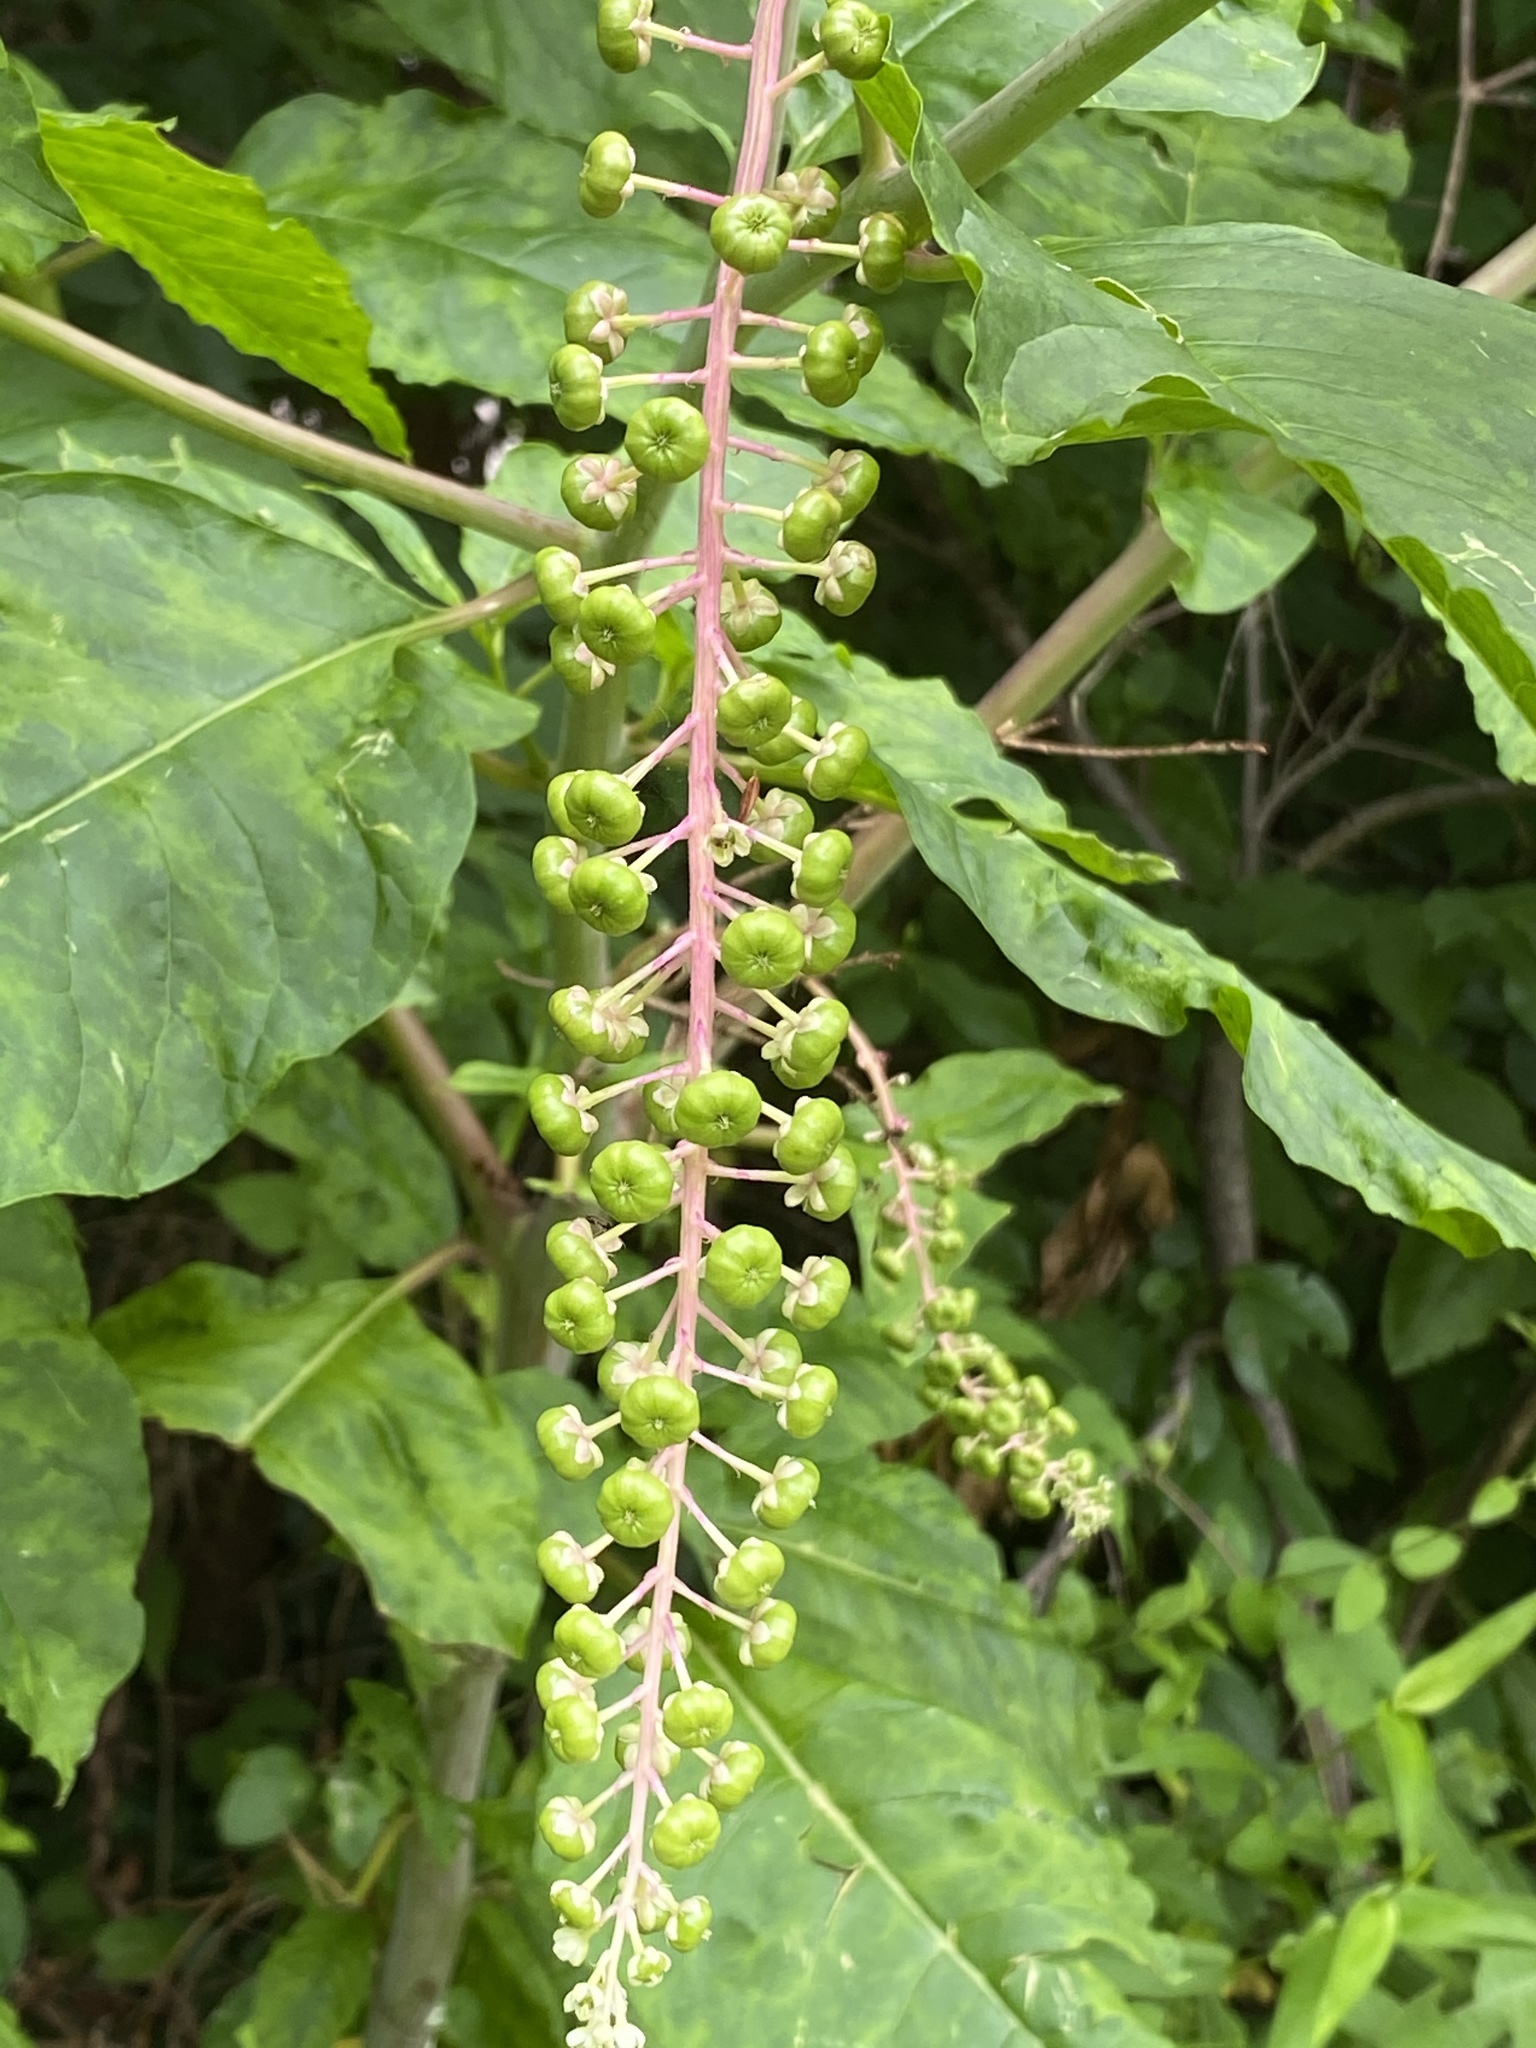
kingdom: Plantae
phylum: Tracheophyta
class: Magnoliopsida
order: Caryophyllales
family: Phytolaccaceae
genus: Phytolacca
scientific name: Phytolacca americana
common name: American pokeweed
